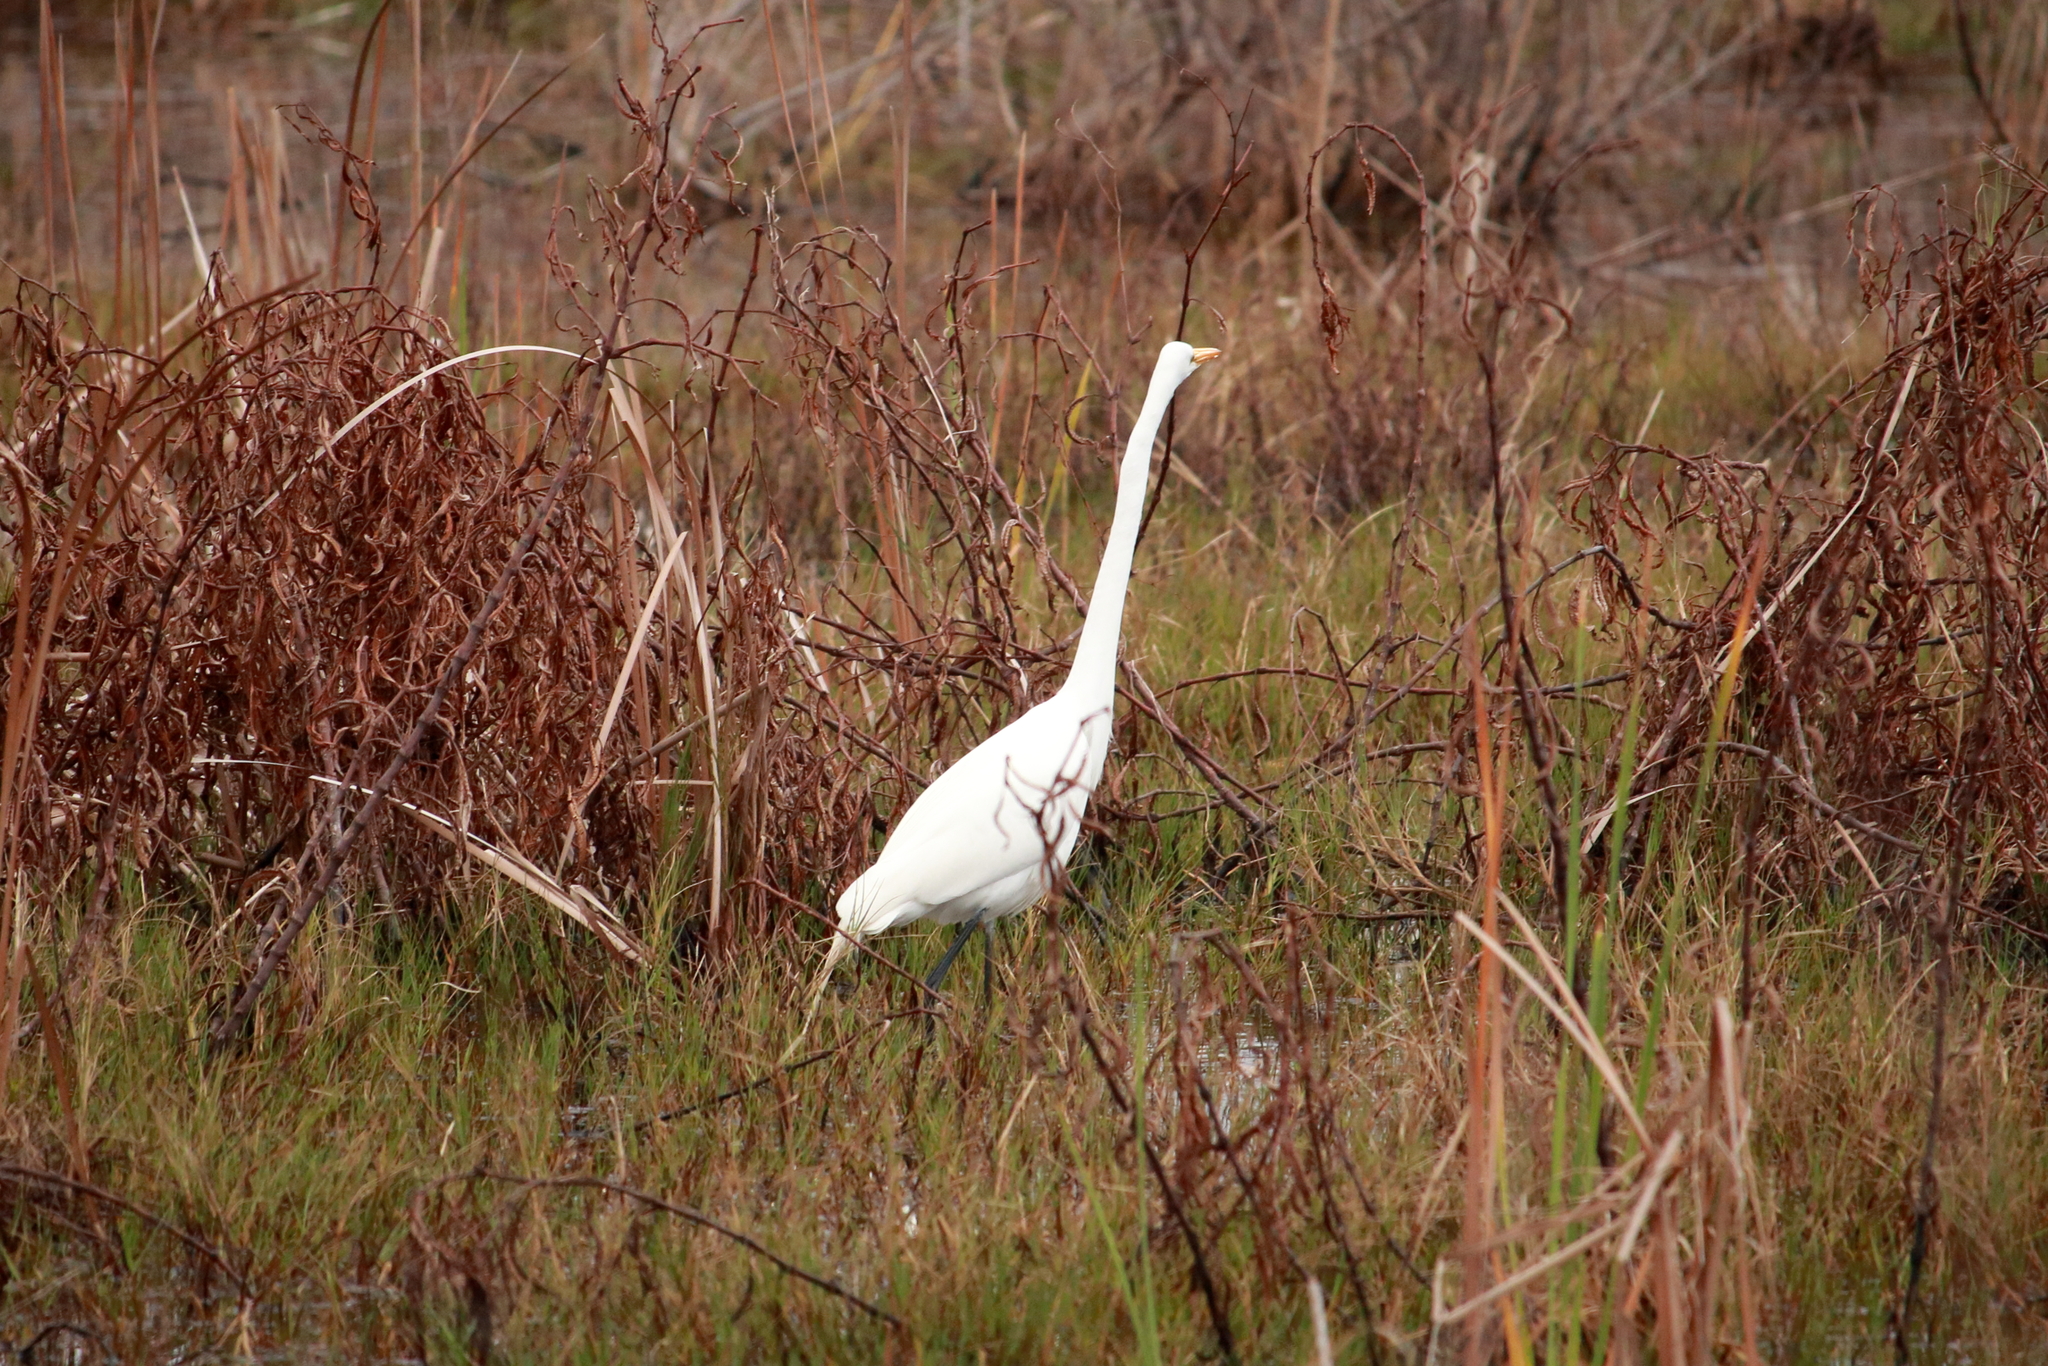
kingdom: Animalia
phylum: Chordata
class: Aves
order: Pelecaniformes
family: Ardeidae
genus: Ardea
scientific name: Ardea alba
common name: Great egret
